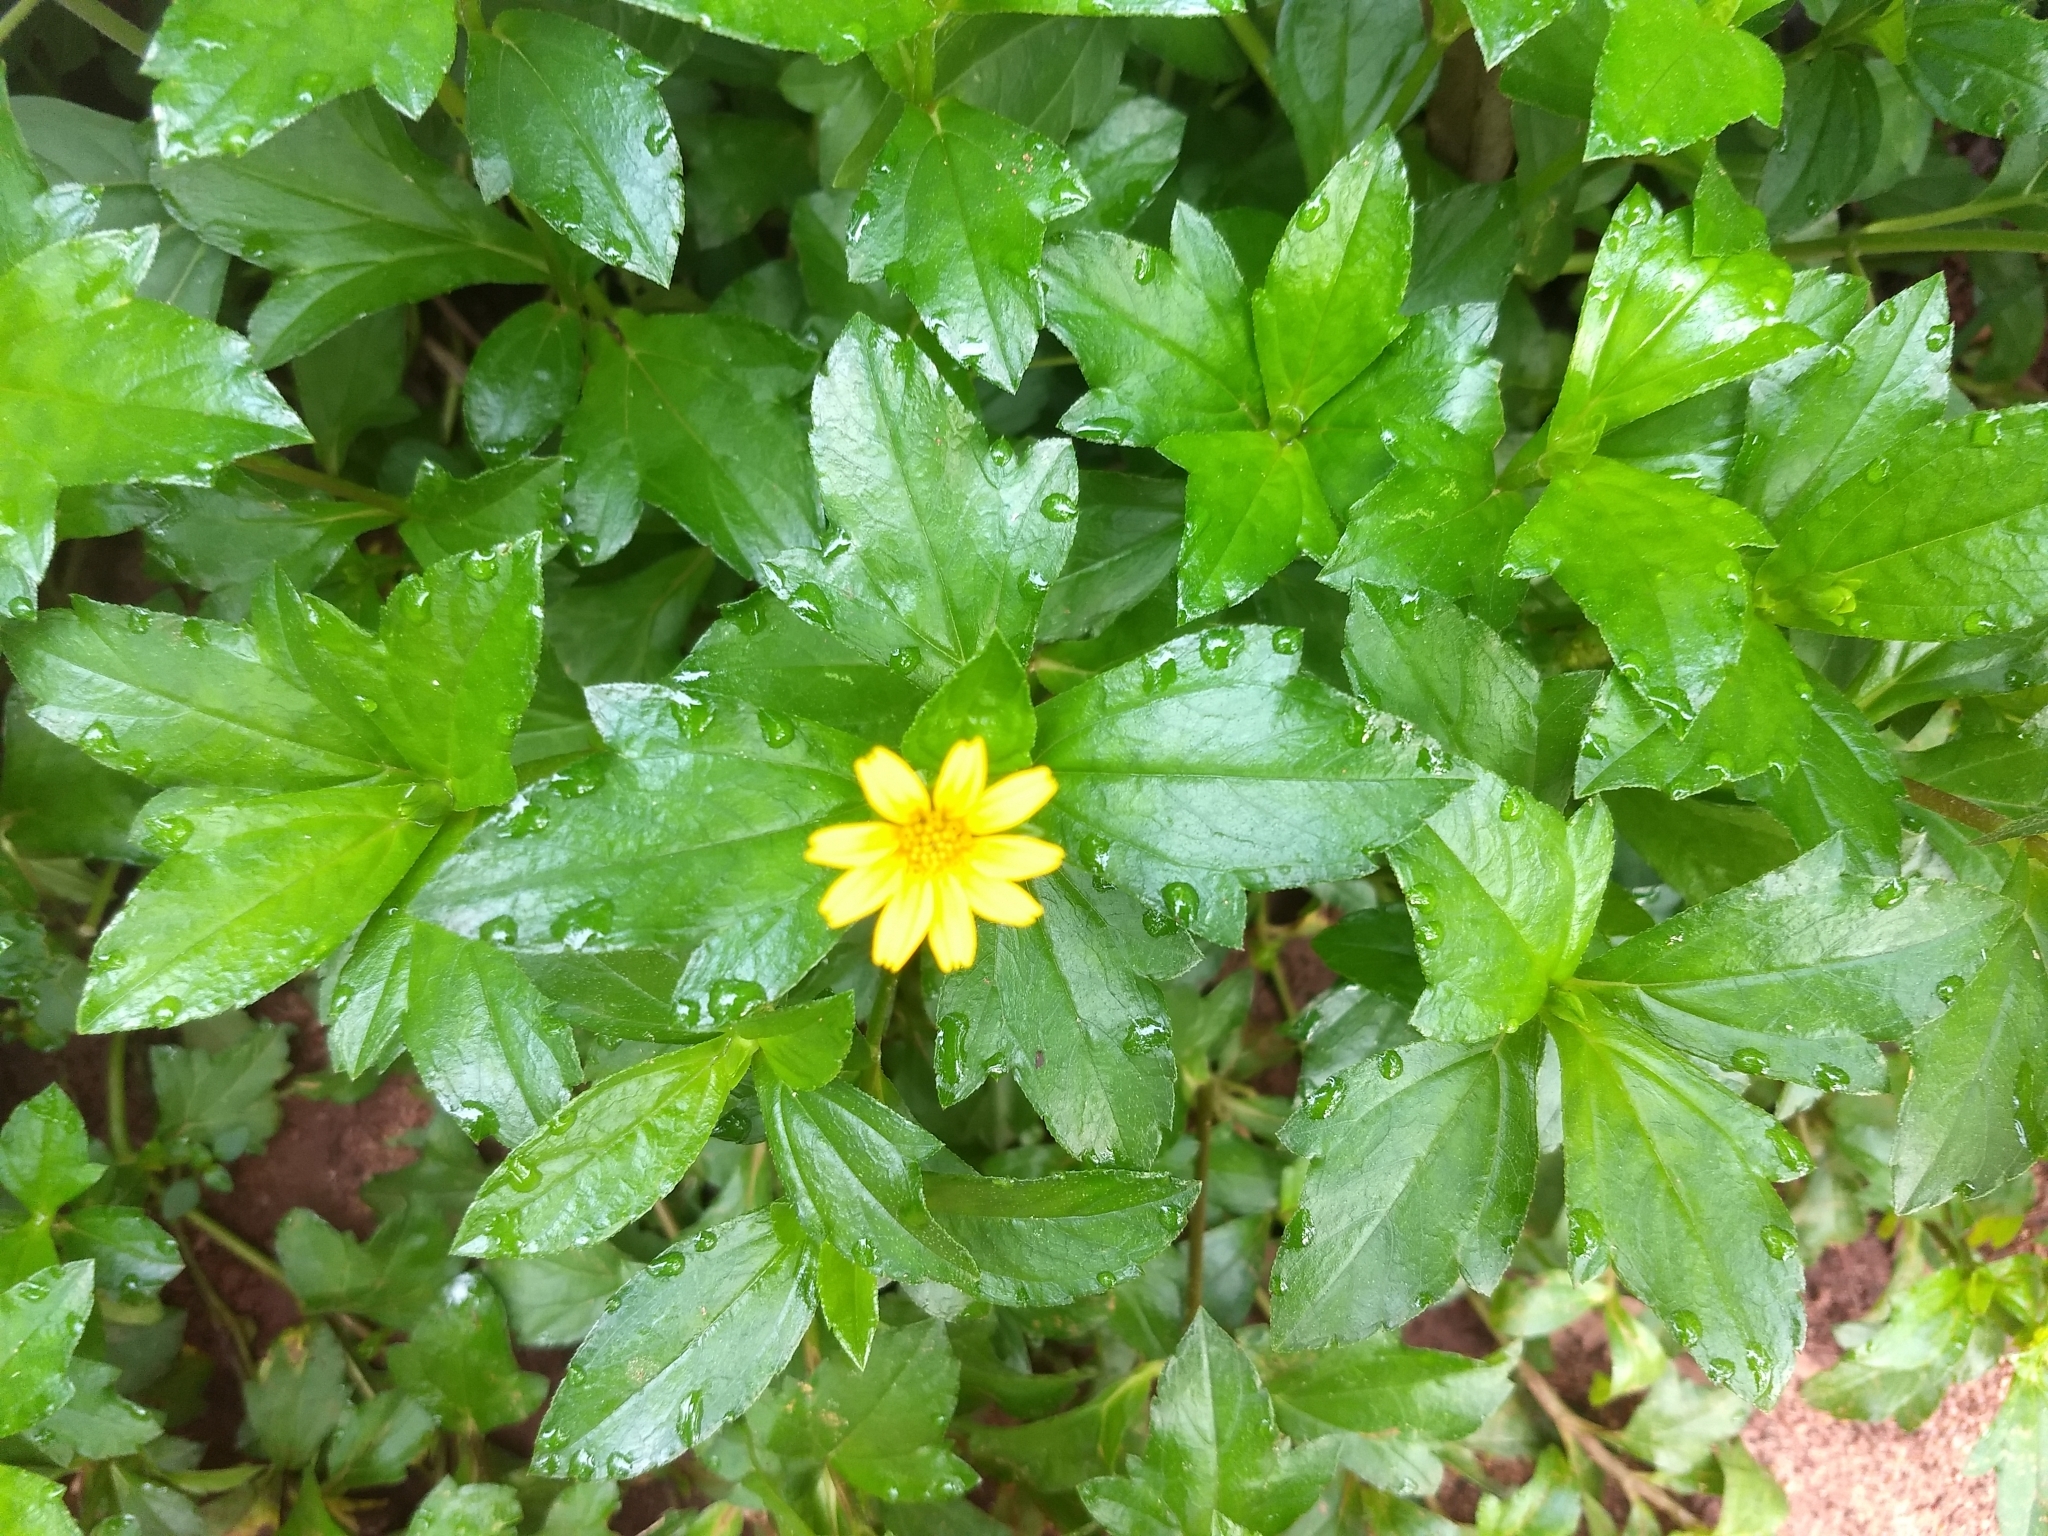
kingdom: Plantae
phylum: Tracheophyta
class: Magnoliopsida
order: Asterales
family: Asteraceae
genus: Sphagneticola
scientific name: Sphagneticola trilobata
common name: Bay biscayne creeping-oxeye
